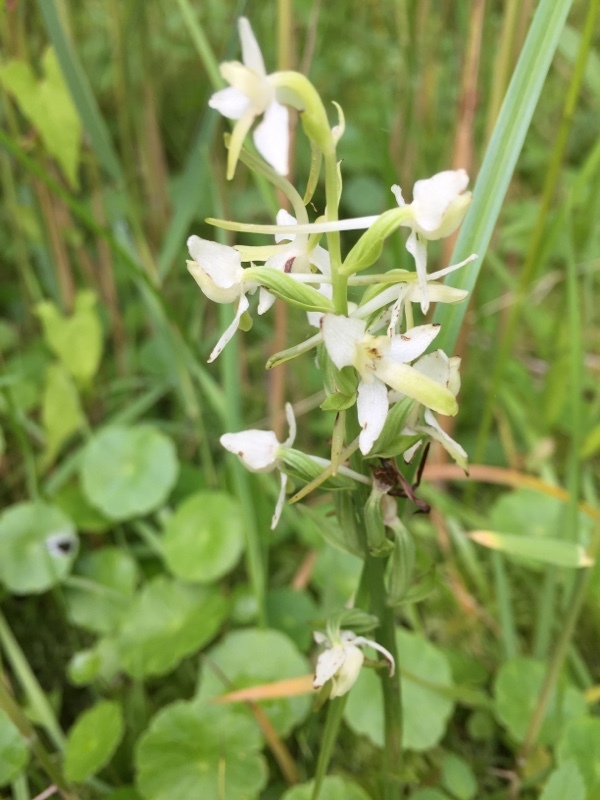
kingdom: Plantae
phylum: Tracheophyta
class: Liliopsida
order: Asparagales
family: Orchidaceae
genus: Platanthera
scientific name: Platanthera bifolia
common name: Lesser butterfly-orchid
